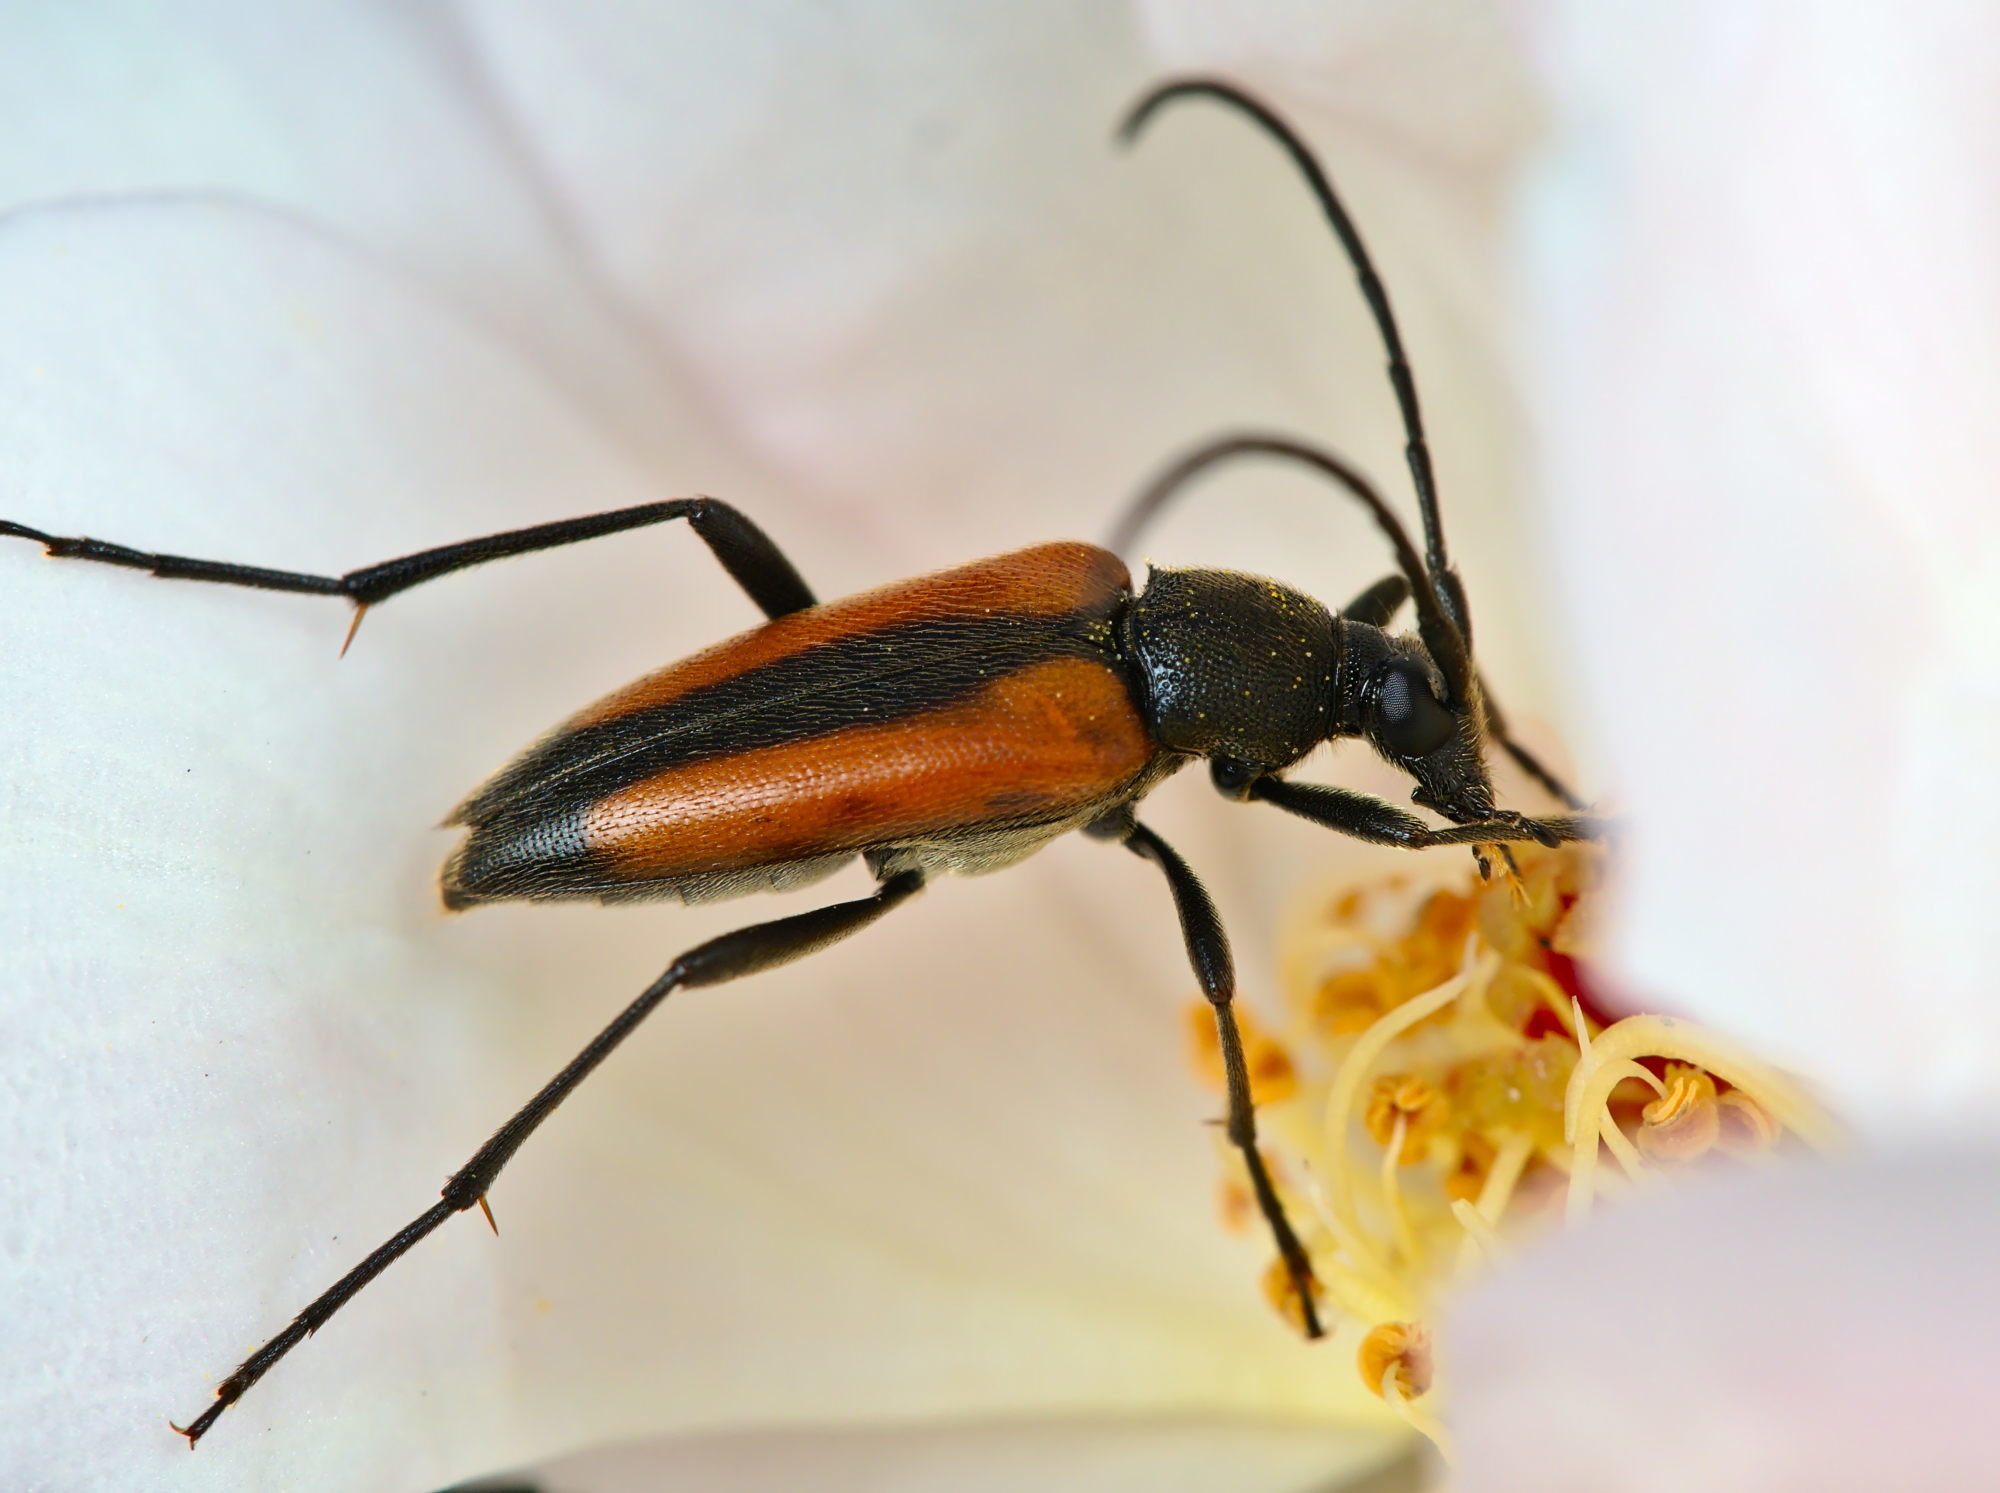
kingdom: Animalia
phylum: Arthropoda
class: Insecta
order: Coleoptera
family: Cerambycidae
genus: Stenurella
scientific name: Stenurella melanura
